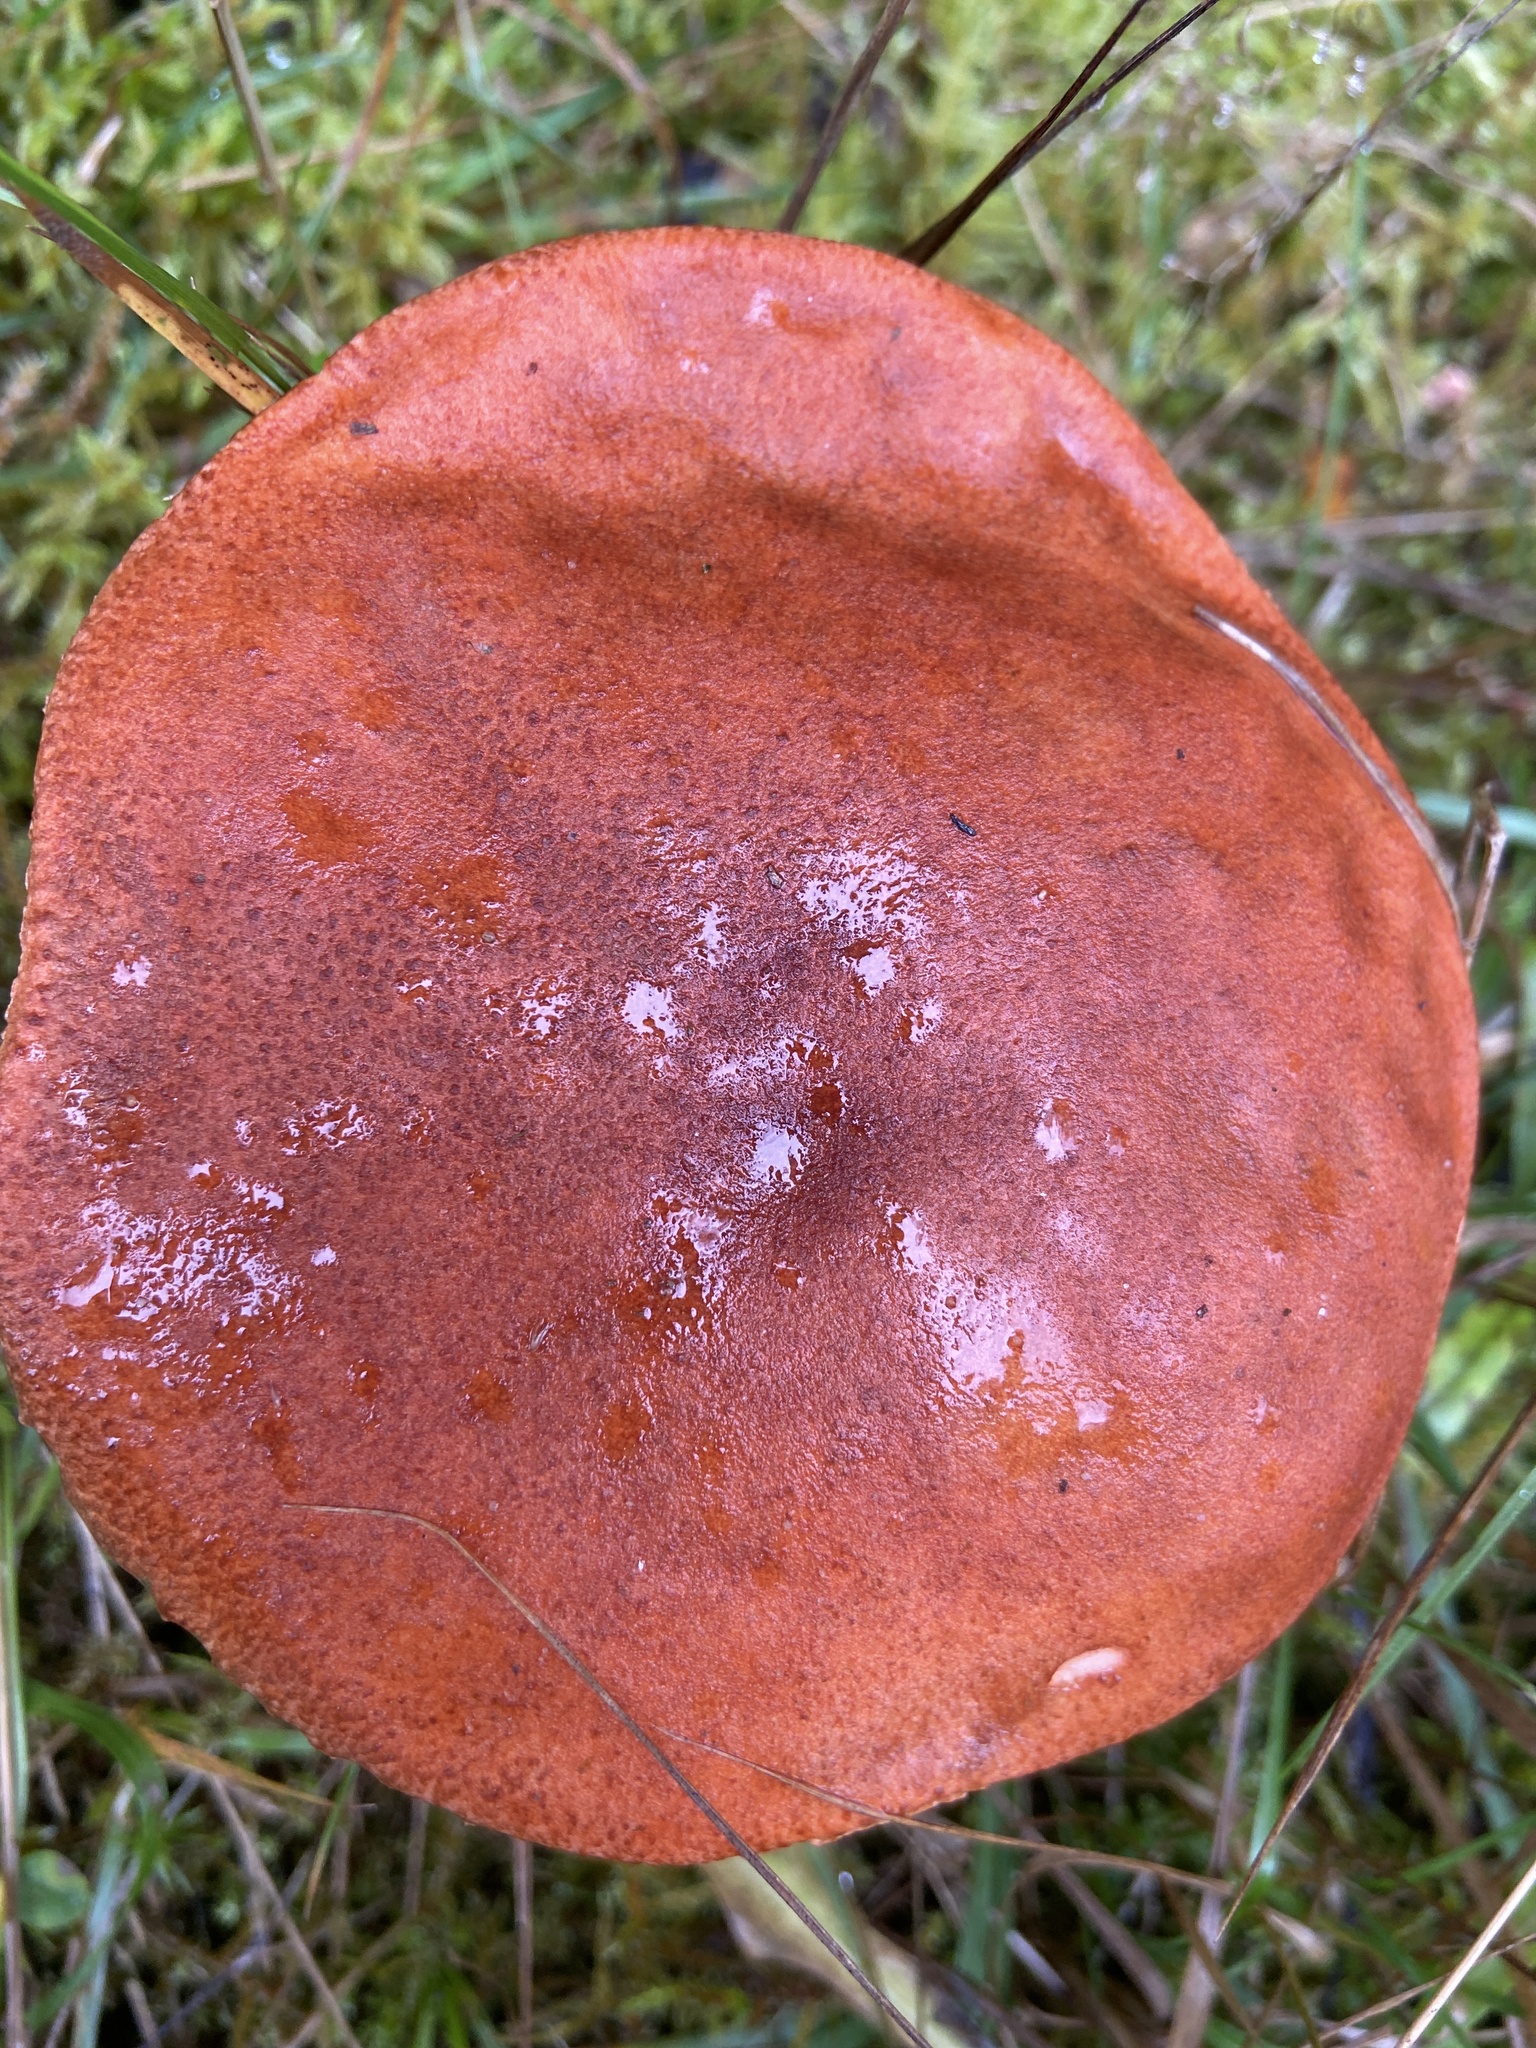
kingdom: Fungi
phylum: Basidiomycota
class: Agaricomycetes
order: Boletales
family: Boletaceae
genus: Leccinum
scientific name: Leccinum aurantiacum
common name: Orange bolete
